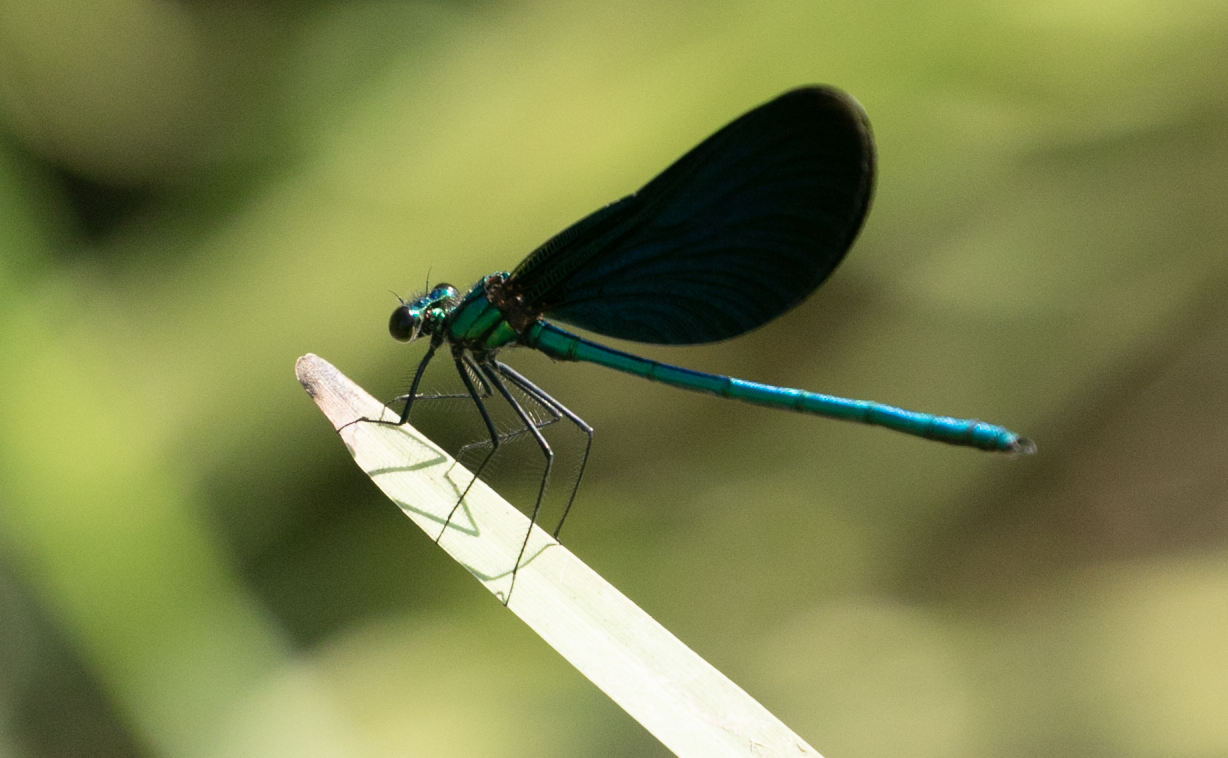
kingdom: Animalia
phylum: Arthropoda
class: Insecta
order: Odonata
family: Calopterygidae
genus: Calopteryx
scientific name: Calopteryx virgo
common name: Beautiful demoiselle
